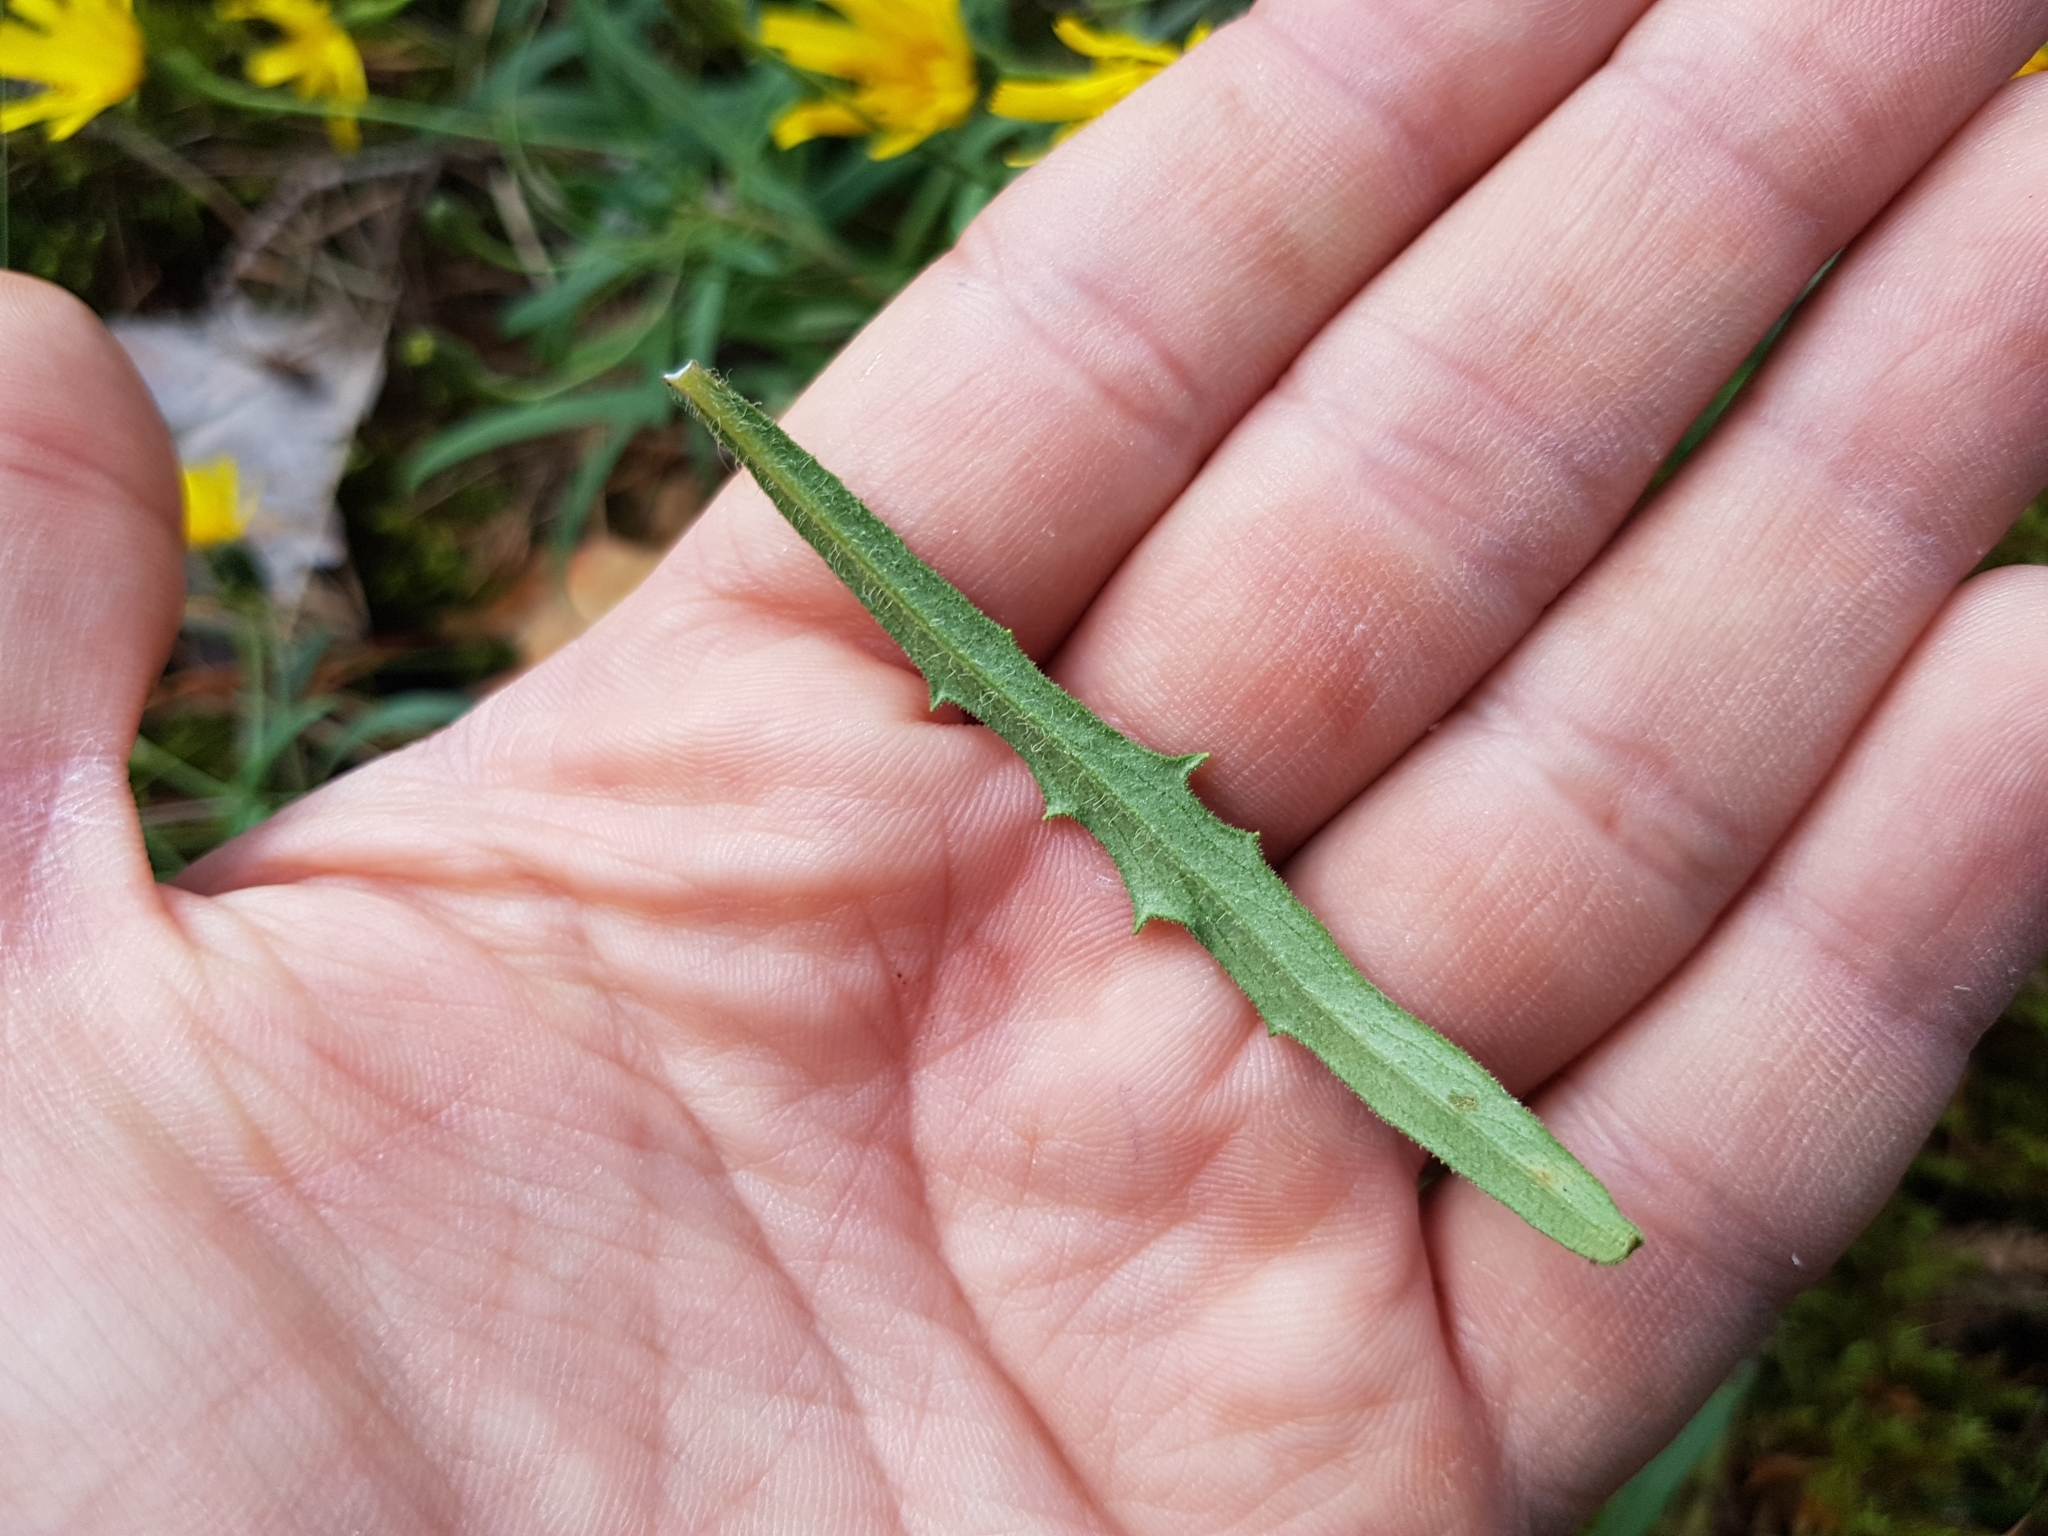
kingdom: Plantae
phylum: Tracheophyta
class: Magnoliopsida
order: Asterales
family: Asteraceae
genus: Hieracium
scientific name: Hieracium umbellatum
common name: Northern hawkweed
